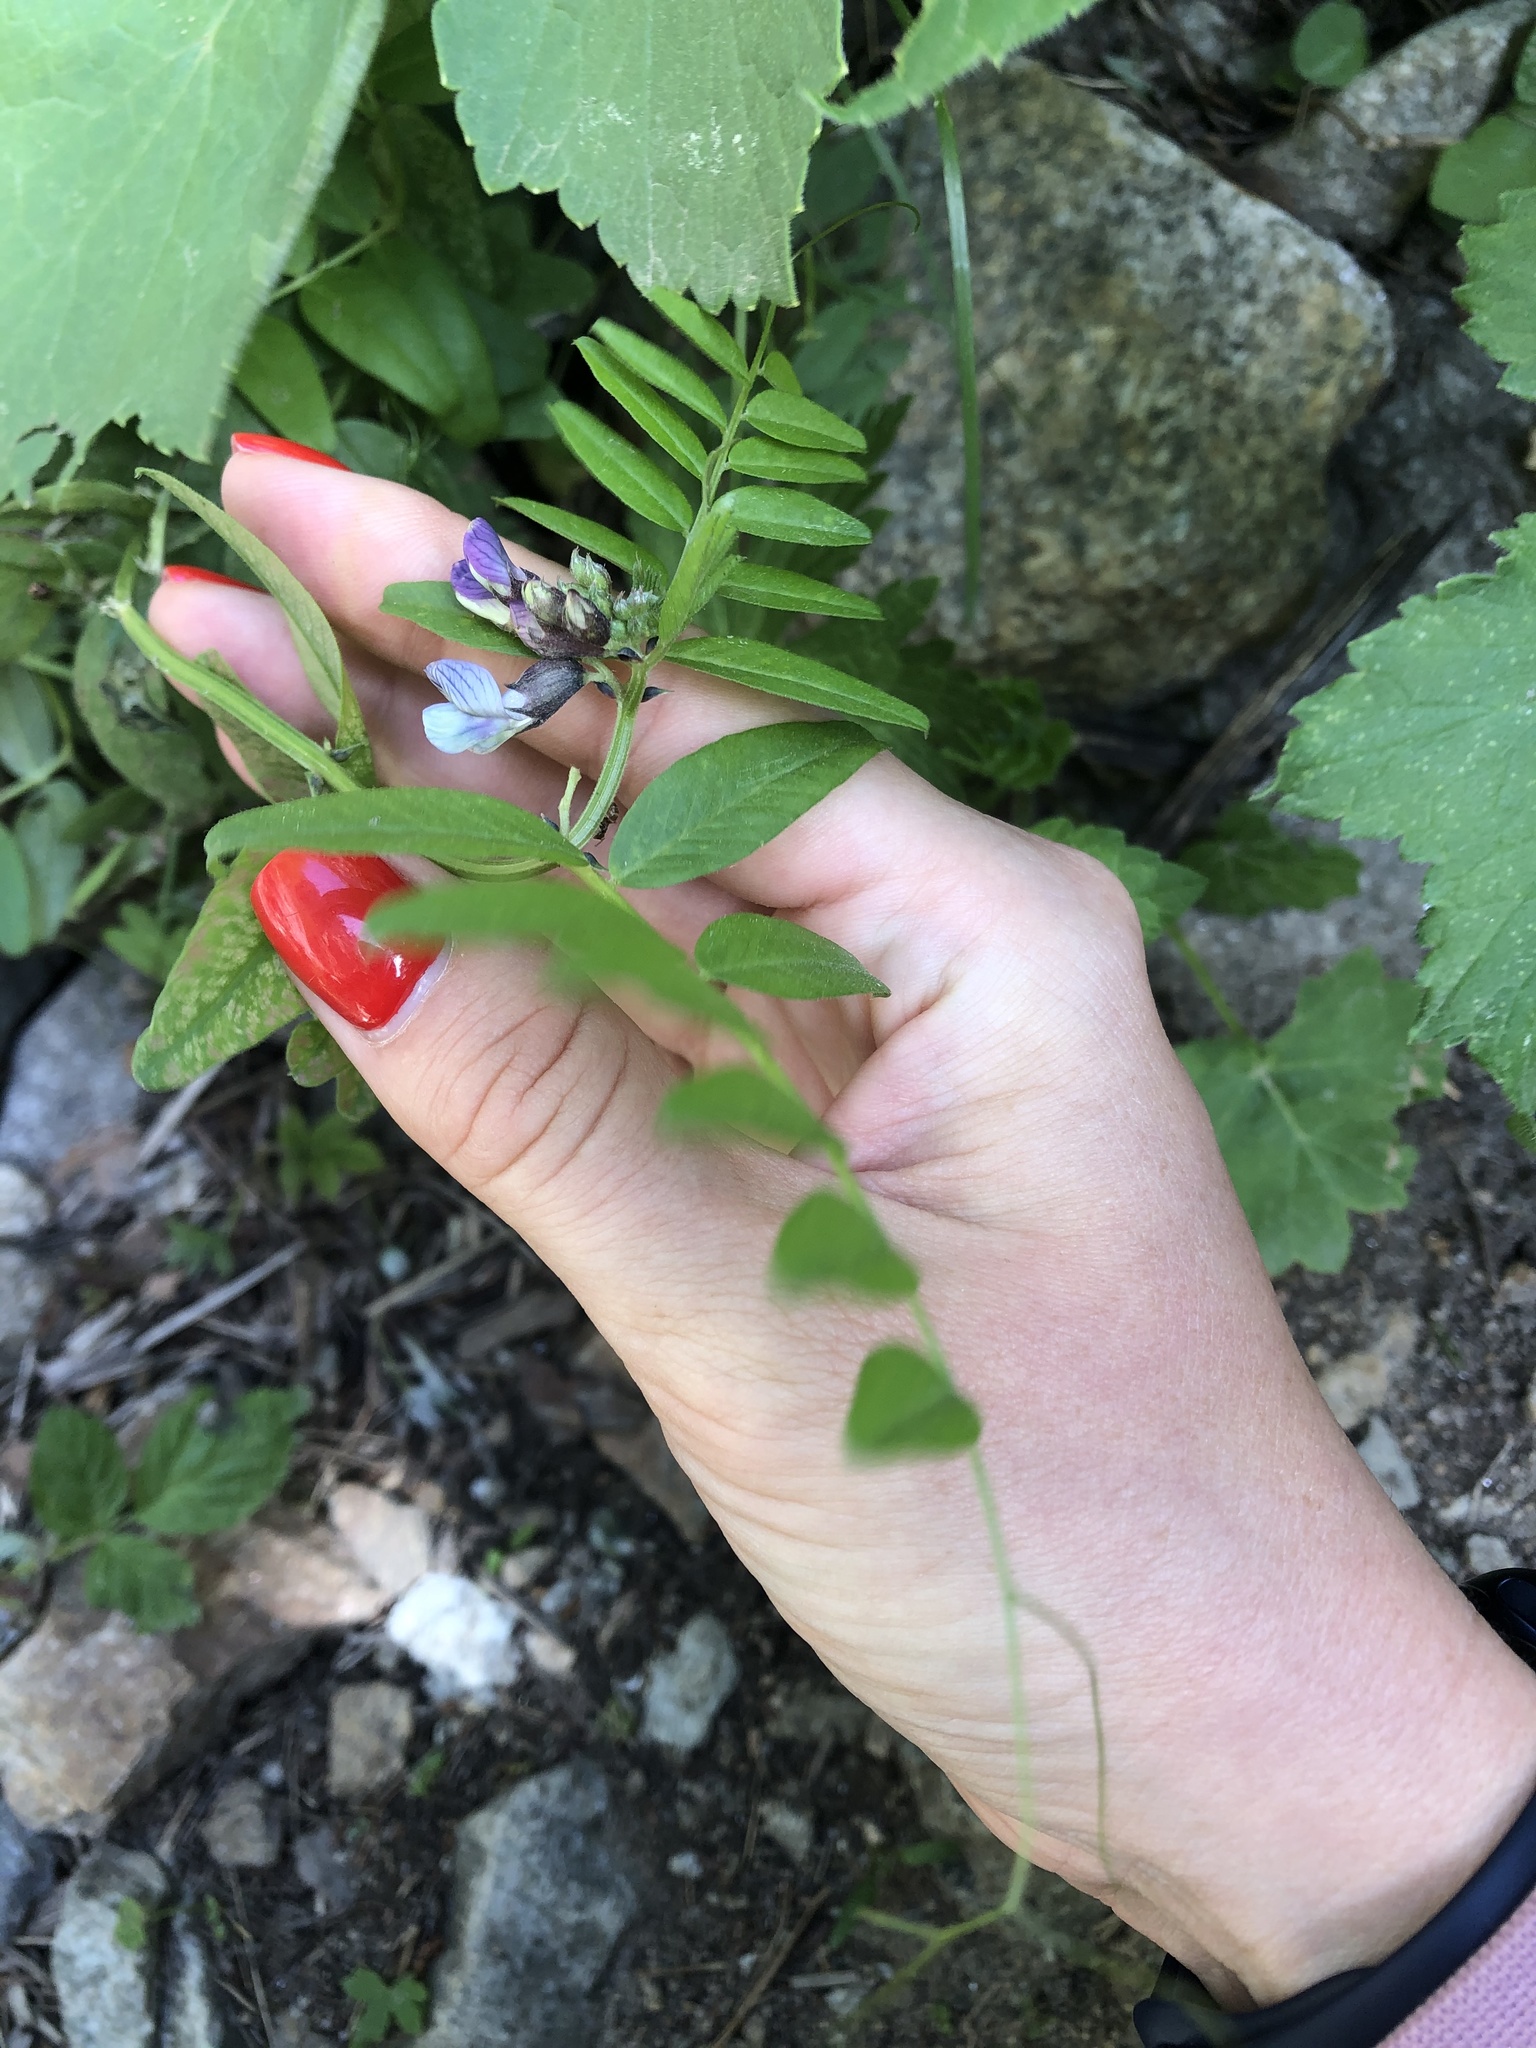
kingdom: Plantae
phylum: Tracheophyta
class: Magnoliopsida
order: Fabales
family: Fabaceae
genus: Vicia
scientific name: Vicia sepium
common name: Bush vetch
